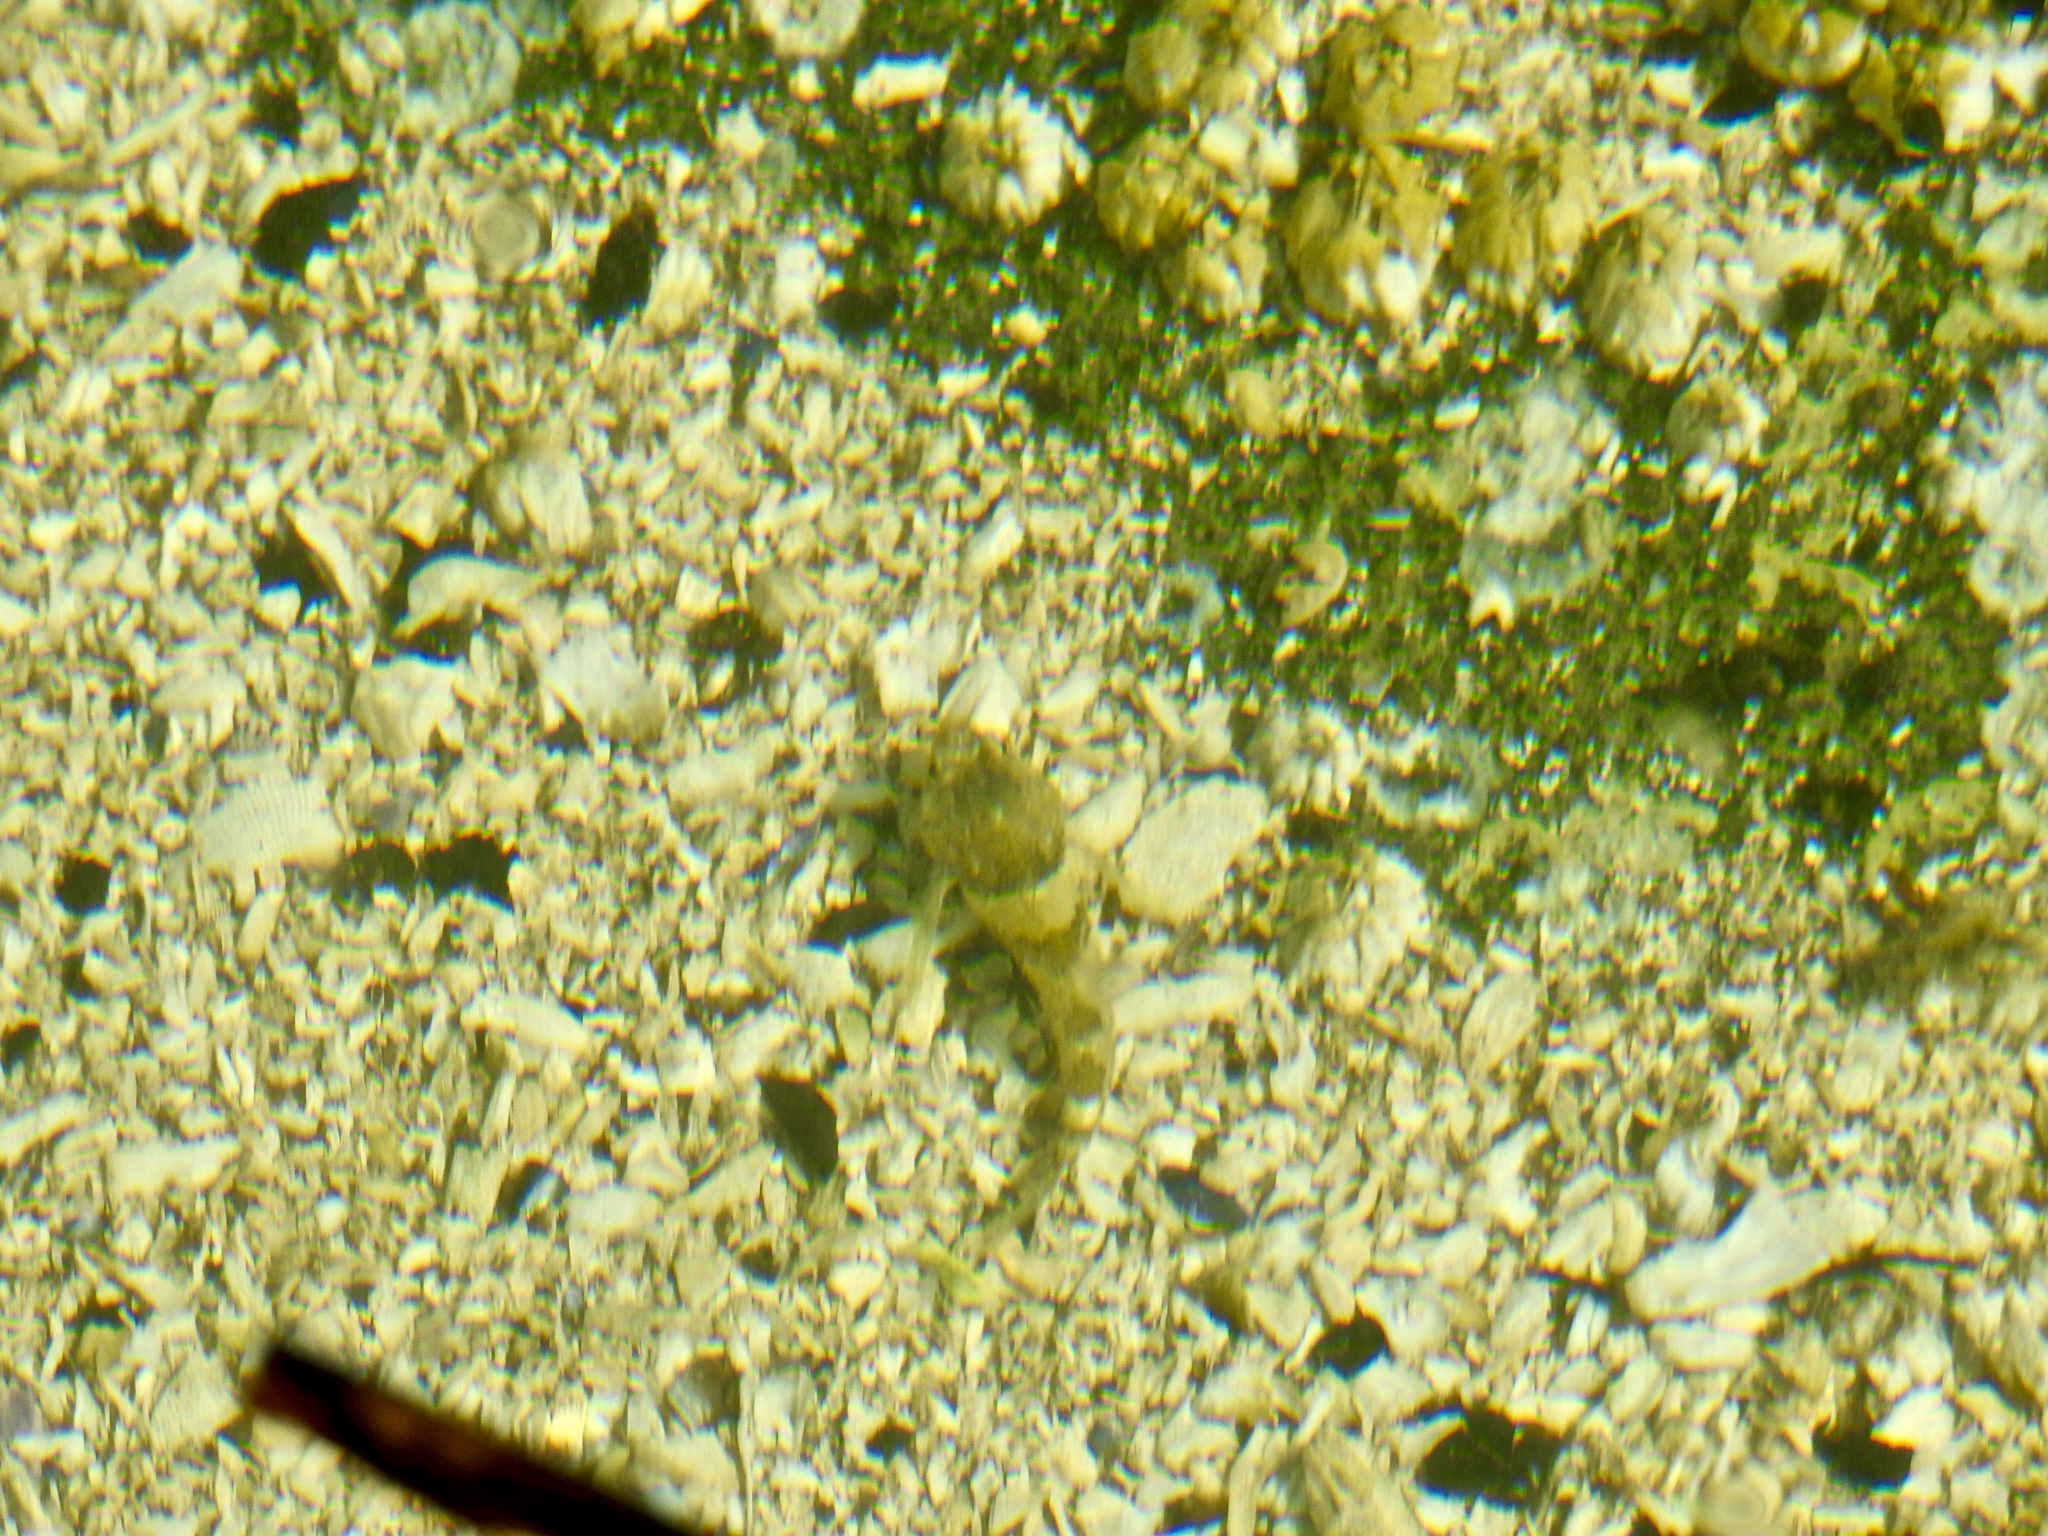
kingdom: Animalia
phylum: Chordata
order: Scorpaeniformes
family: Cottidae
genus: Oligocottus
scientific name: Oligocottus maculosus
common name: Tidepool sculpin
